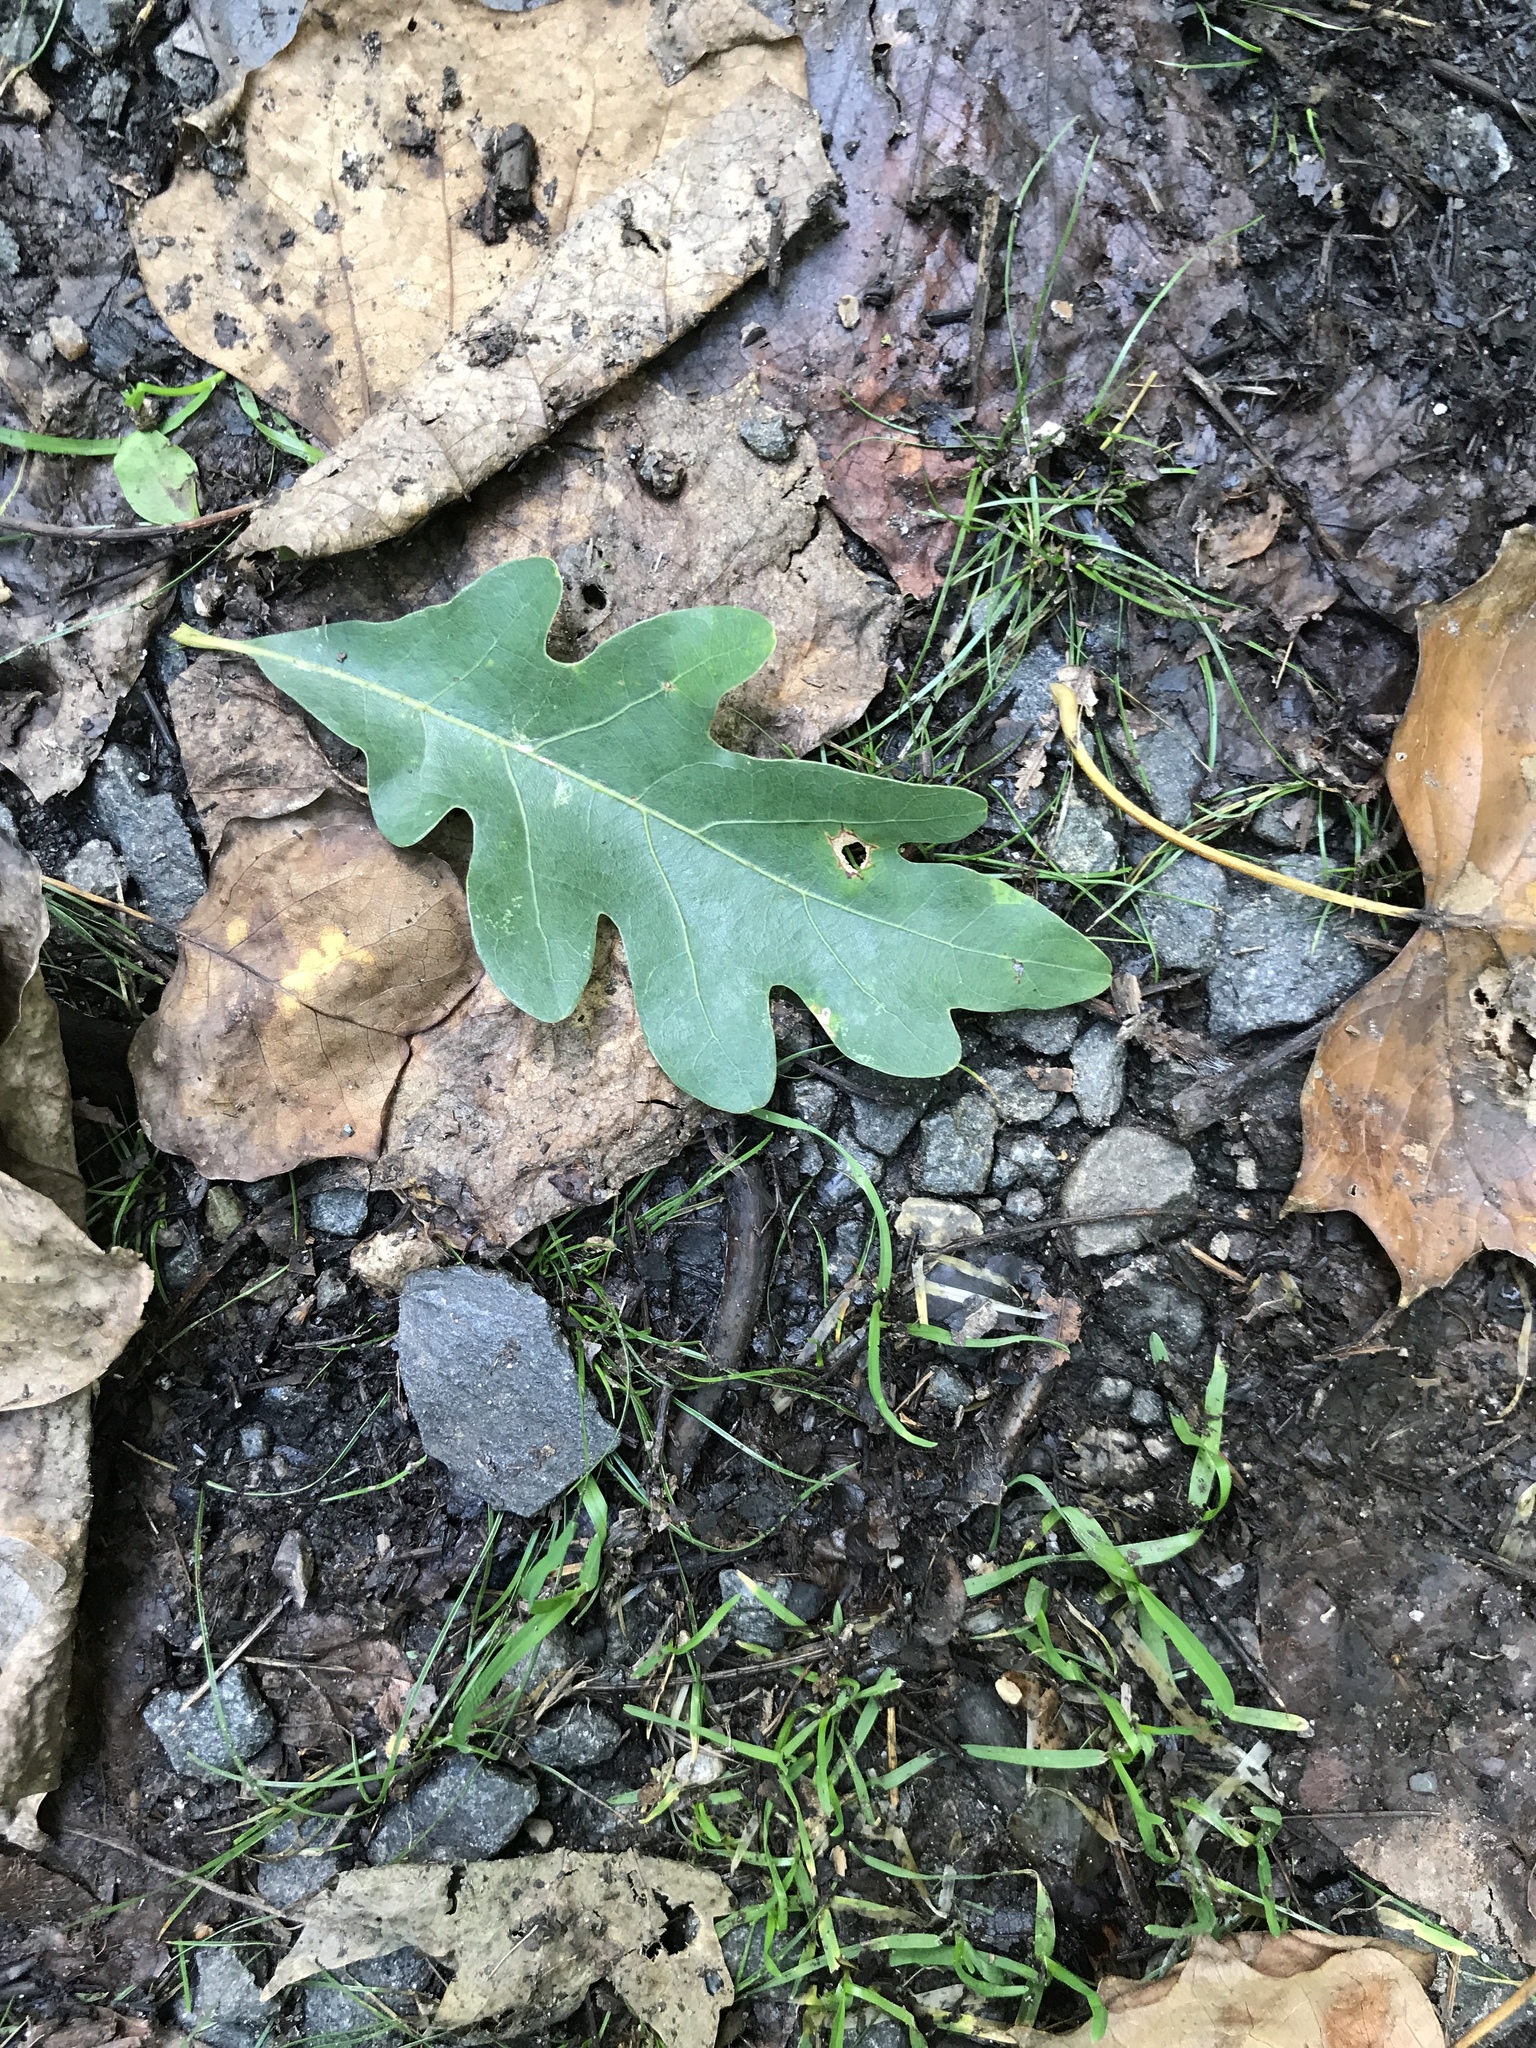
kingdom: Plantae
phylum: Tracheophyta
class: Magnoliopsida
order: Fagales
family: Fagaceae
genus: Quercus
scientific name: Quercus alba
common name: White oak
